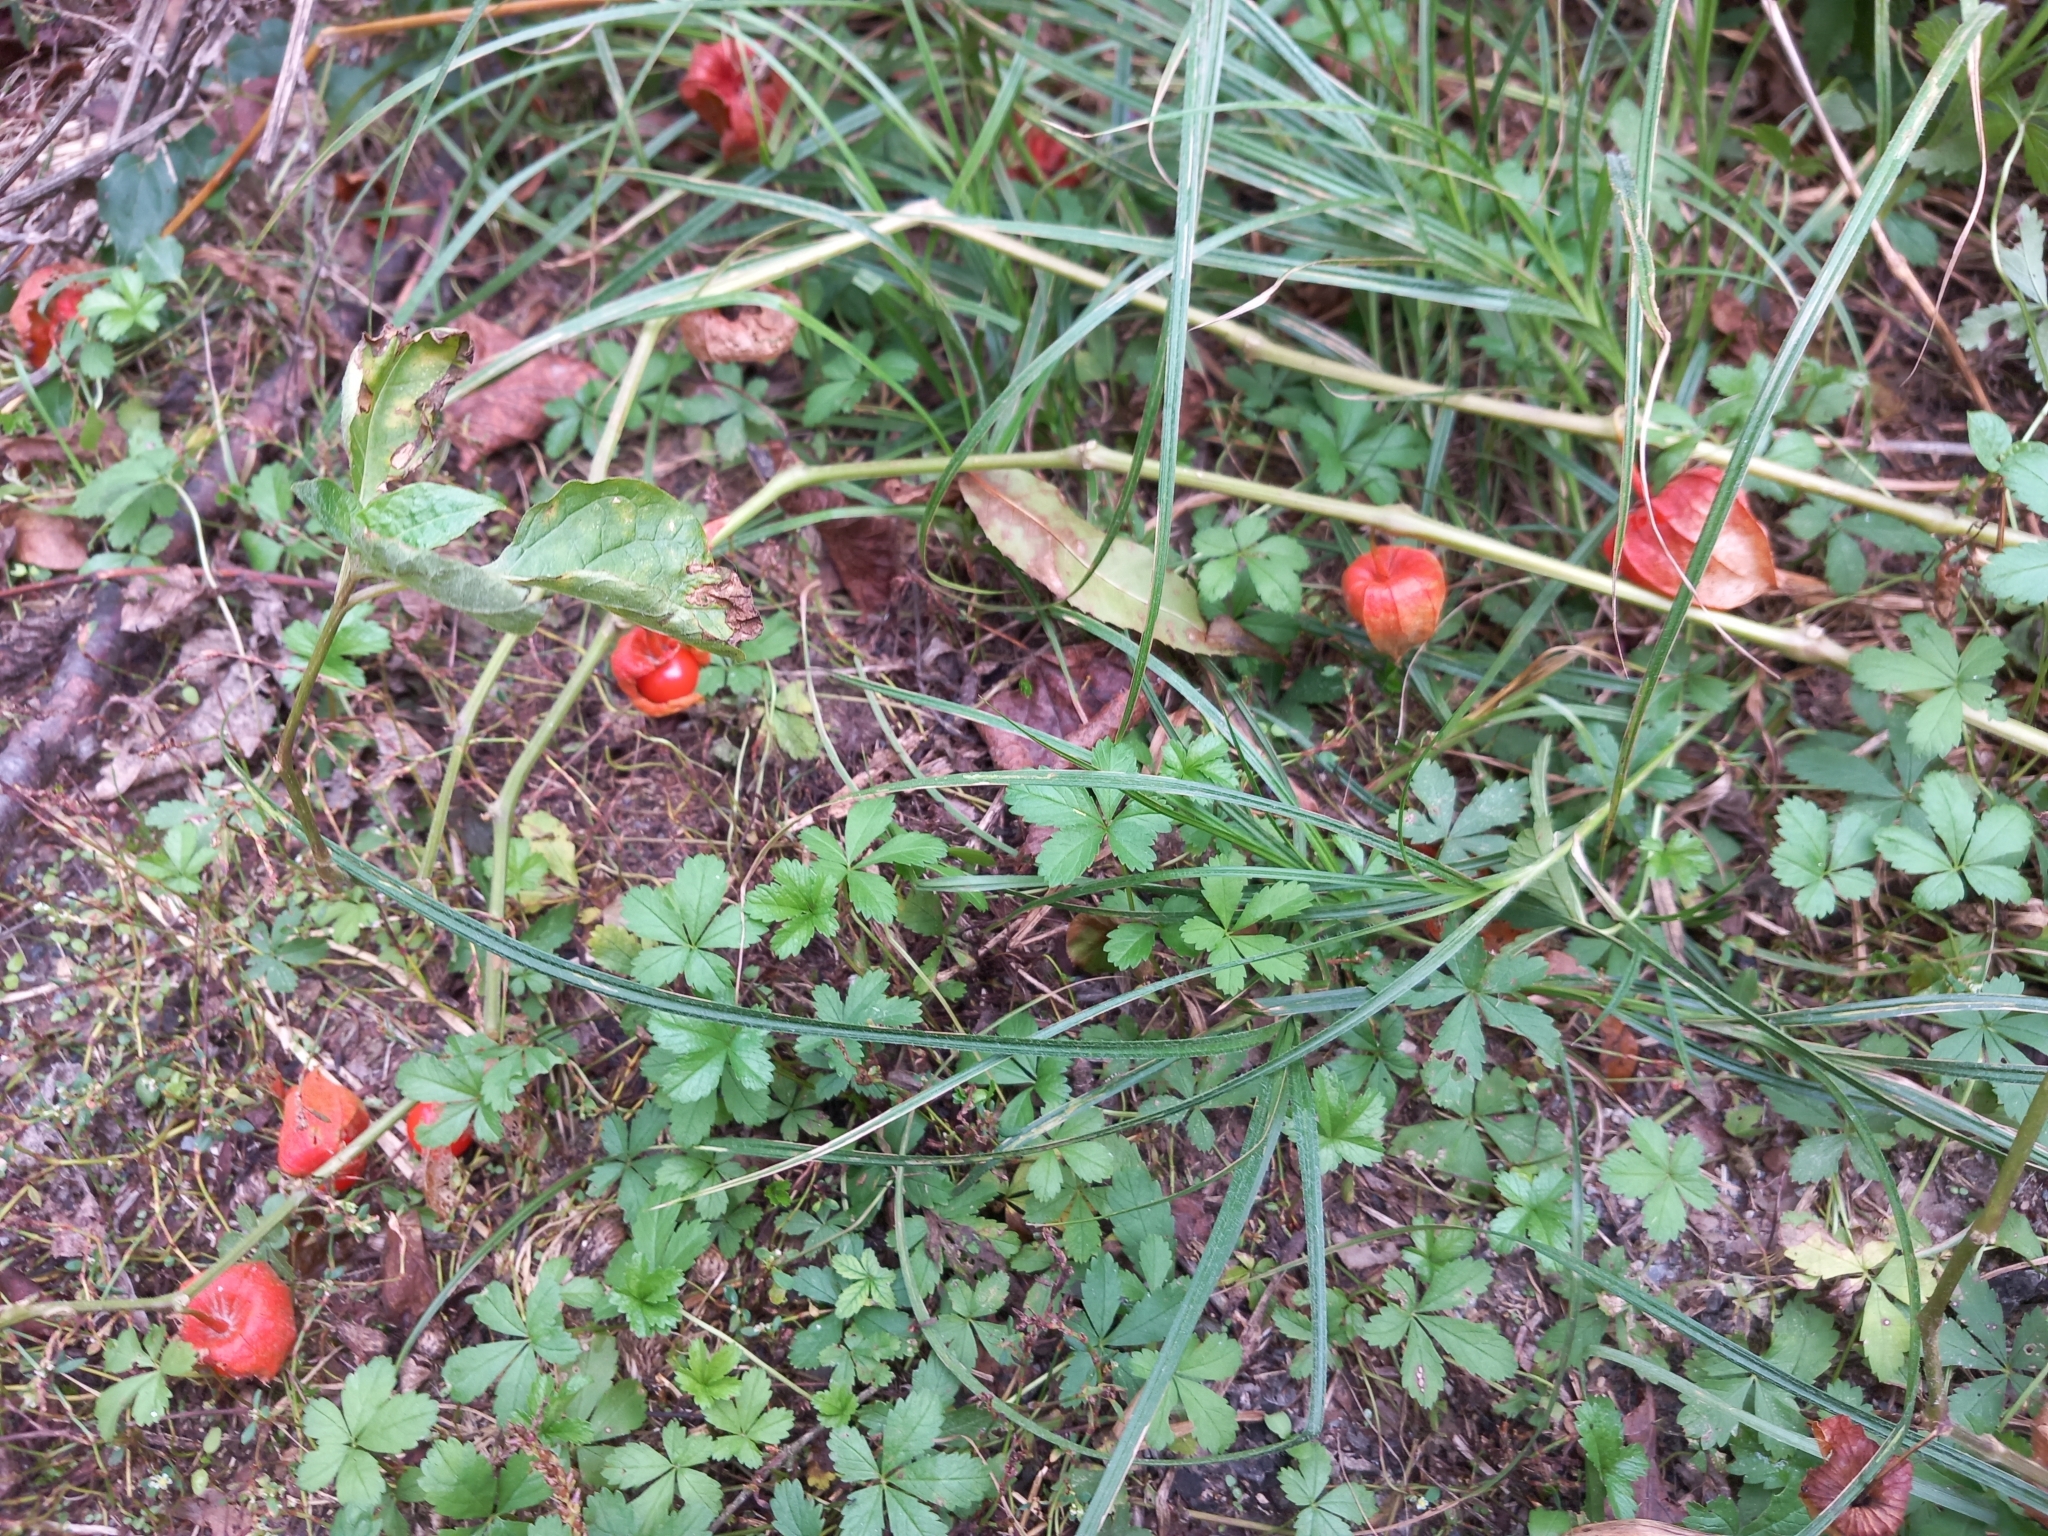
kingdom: Plantae
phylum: Tracheophyta
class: Magnoliopsida
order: Solanales
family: Solanaceae
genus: Alkekengi
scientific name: Alkekengi officinarum
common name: Japanese-lantern
